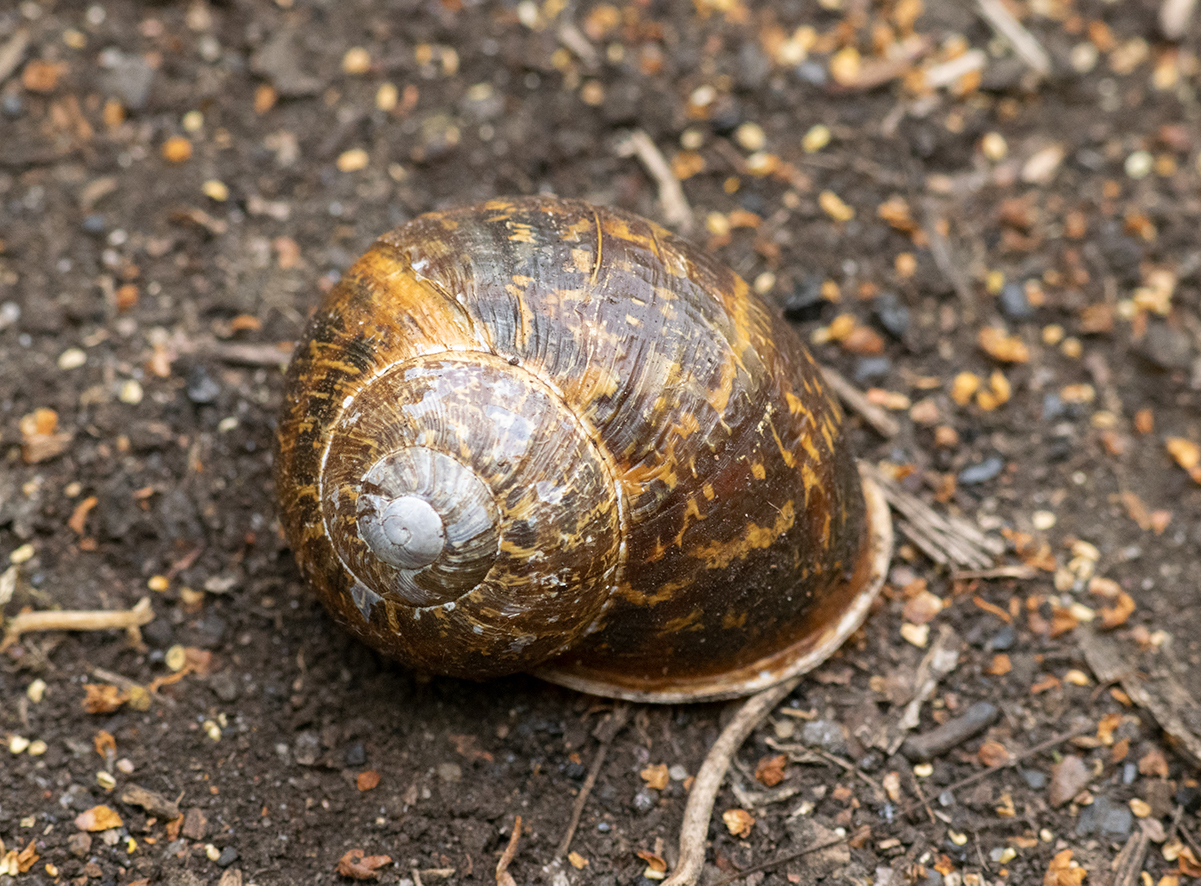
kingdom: Animalia
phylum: Mollusca
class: Gastropoda
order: Stylommatophora
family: Helicidae
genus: Cornu
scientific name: Cornu aspersum
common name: Brown garden snail
